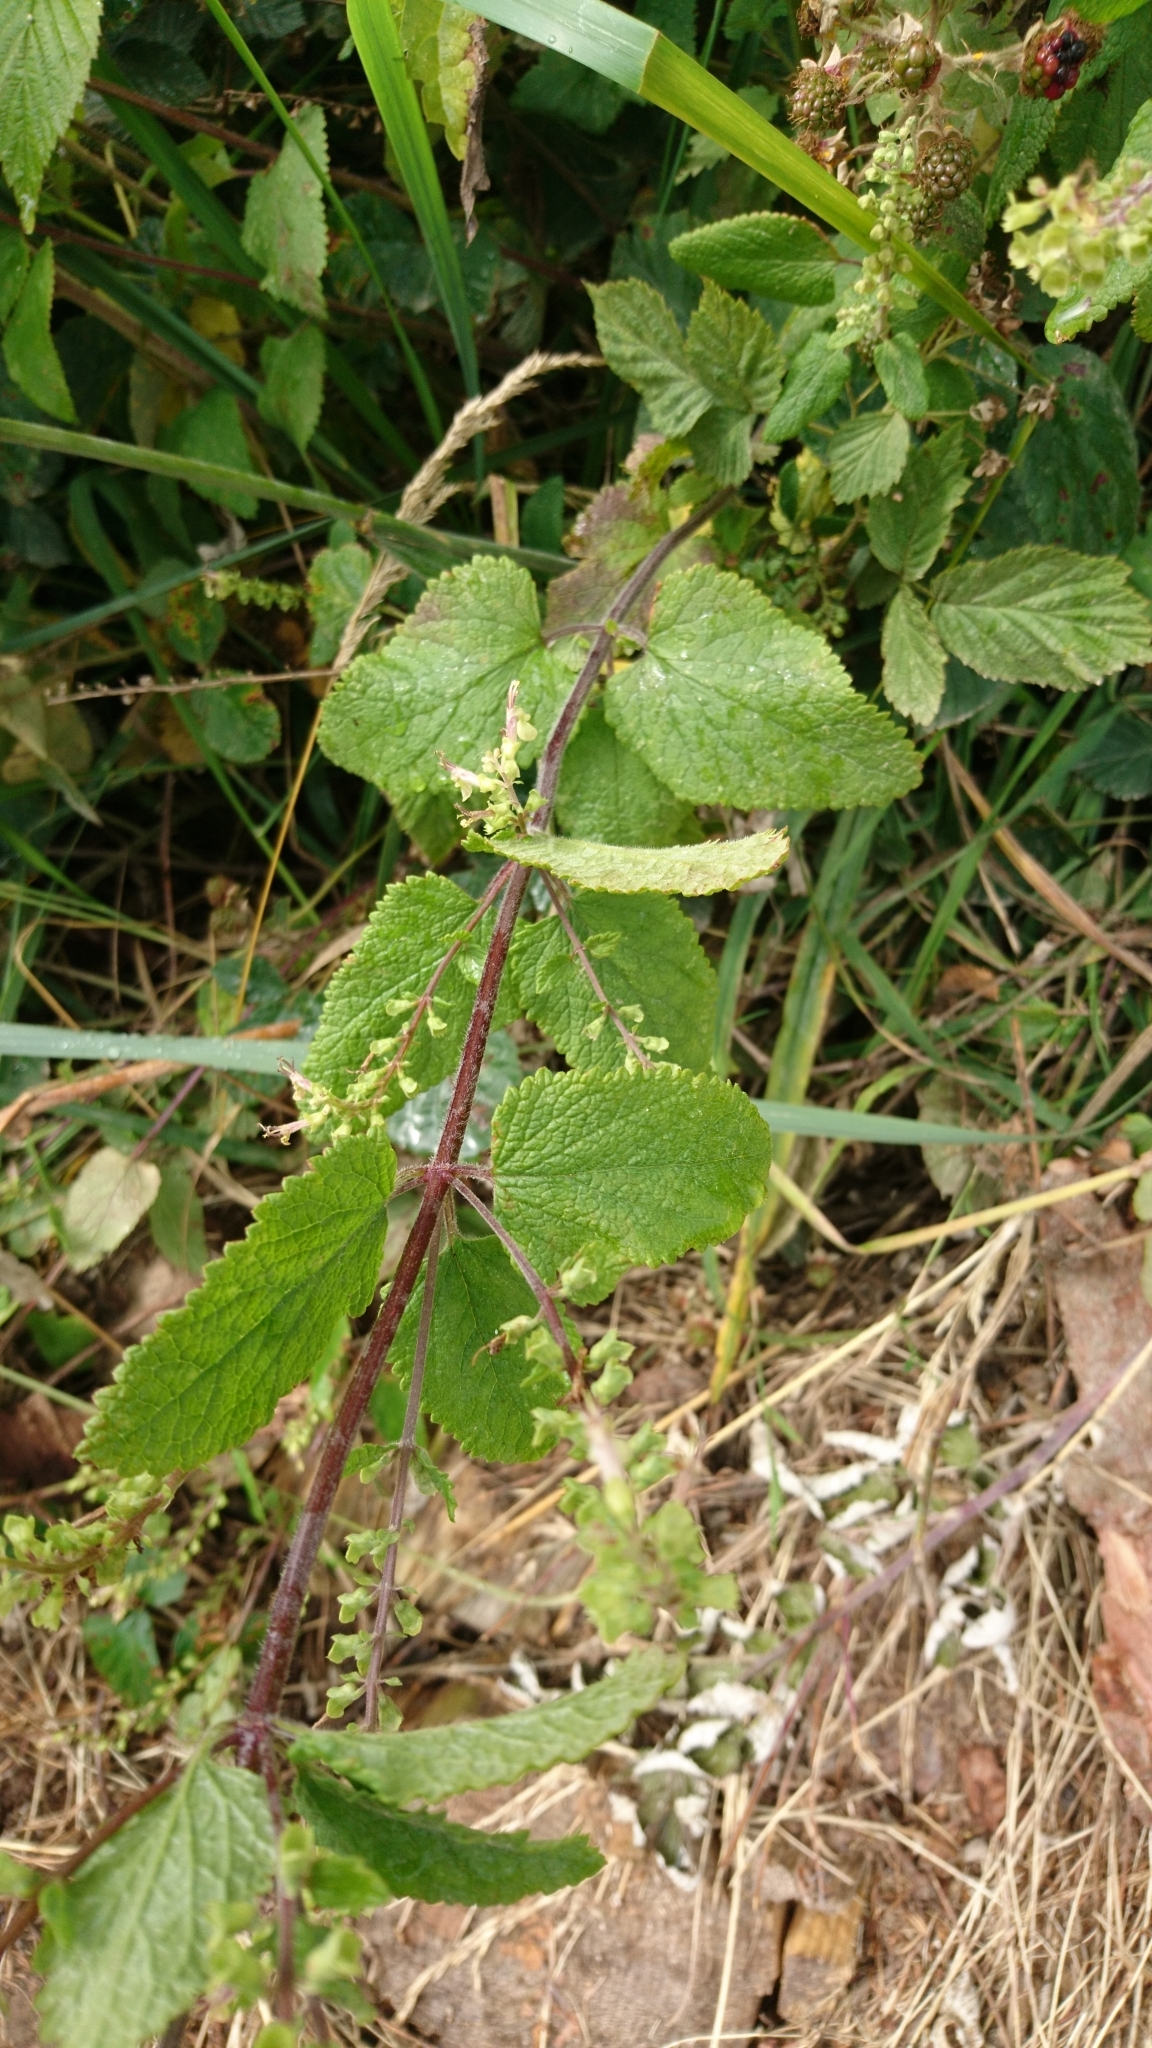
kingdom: Plantae
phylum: Tracheophyta
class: Magnoliopsida
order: Lamiales
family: Lamiaceae
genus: Teucrium
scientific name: Teucrium scorodonia
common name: Woodland germander
